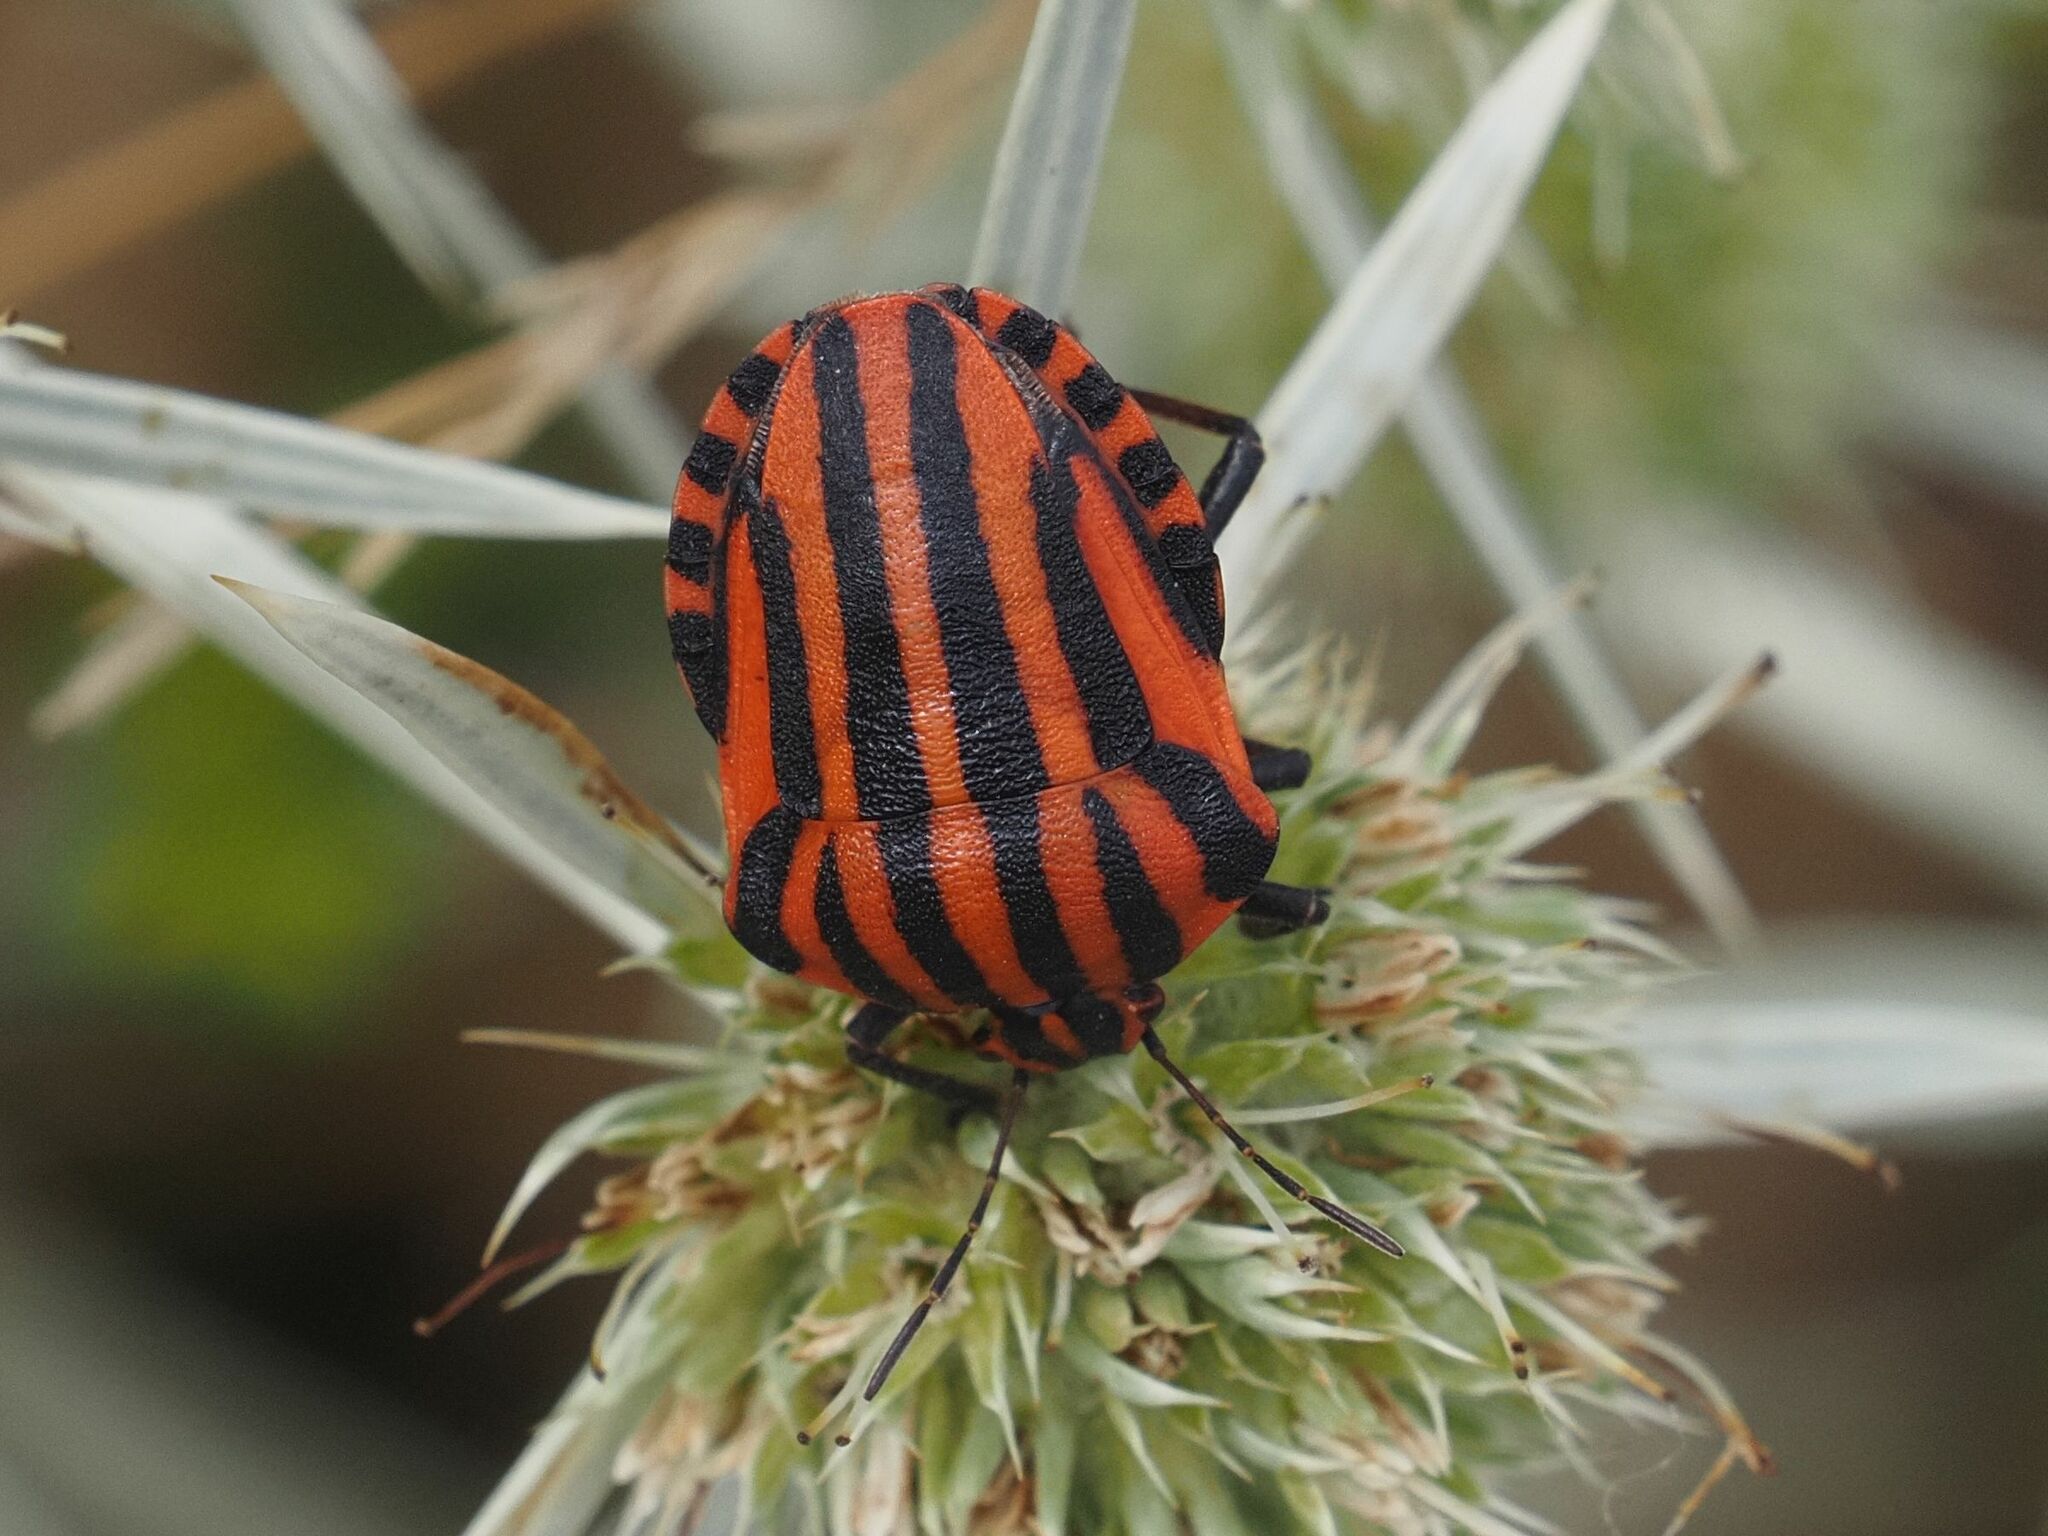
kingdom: Animalia
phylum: Arthropoda
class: Insecta
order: Hemiptera
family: Pentatomidae
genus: Graphosoma
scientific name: Graphosoma italicum
